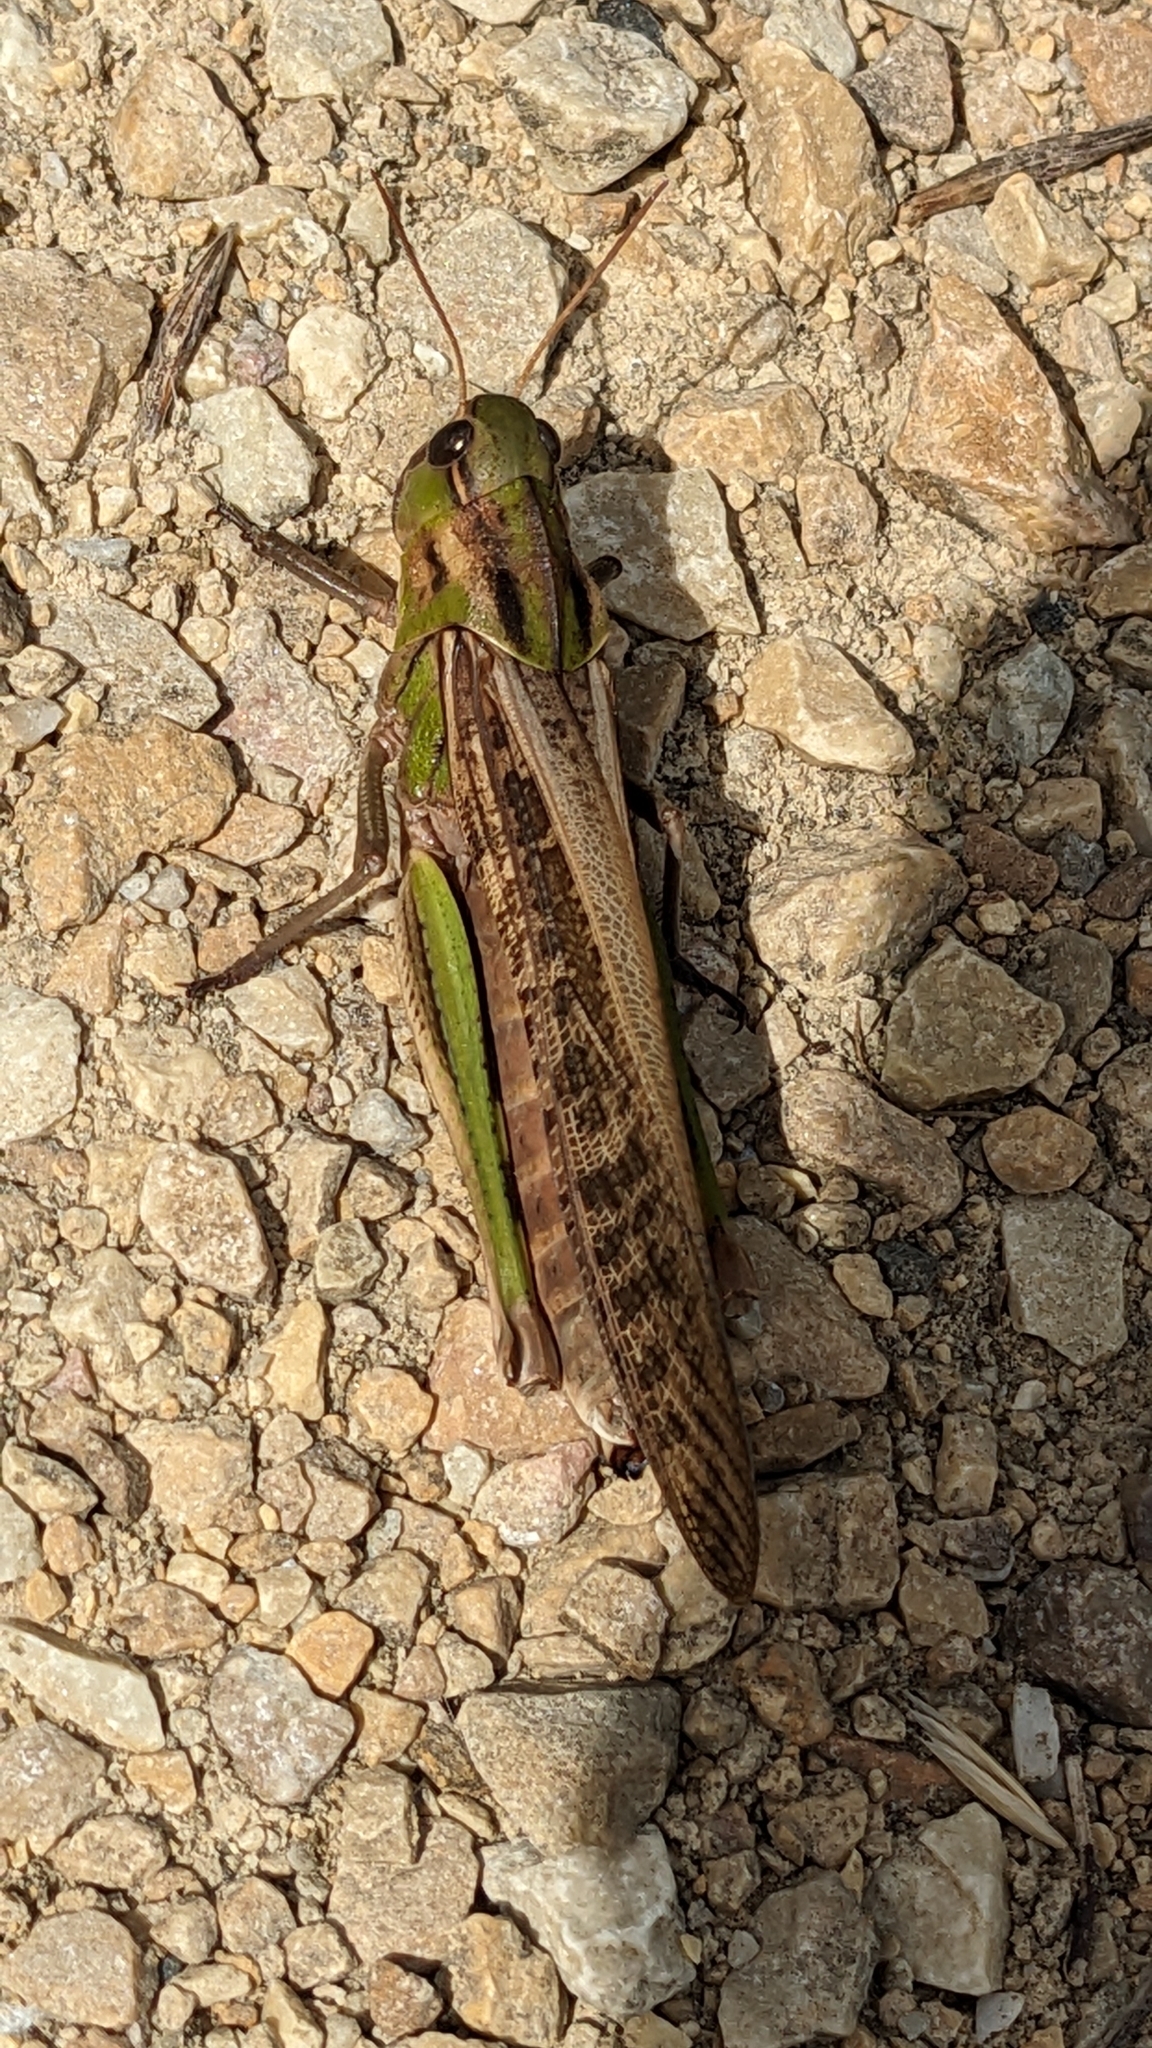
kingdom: Animalia
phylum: Arthropoda
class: Insecta
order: Orthoptera
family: Acrididae
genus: Locusta
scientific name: Locusta migratoria
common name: Migratory locust
